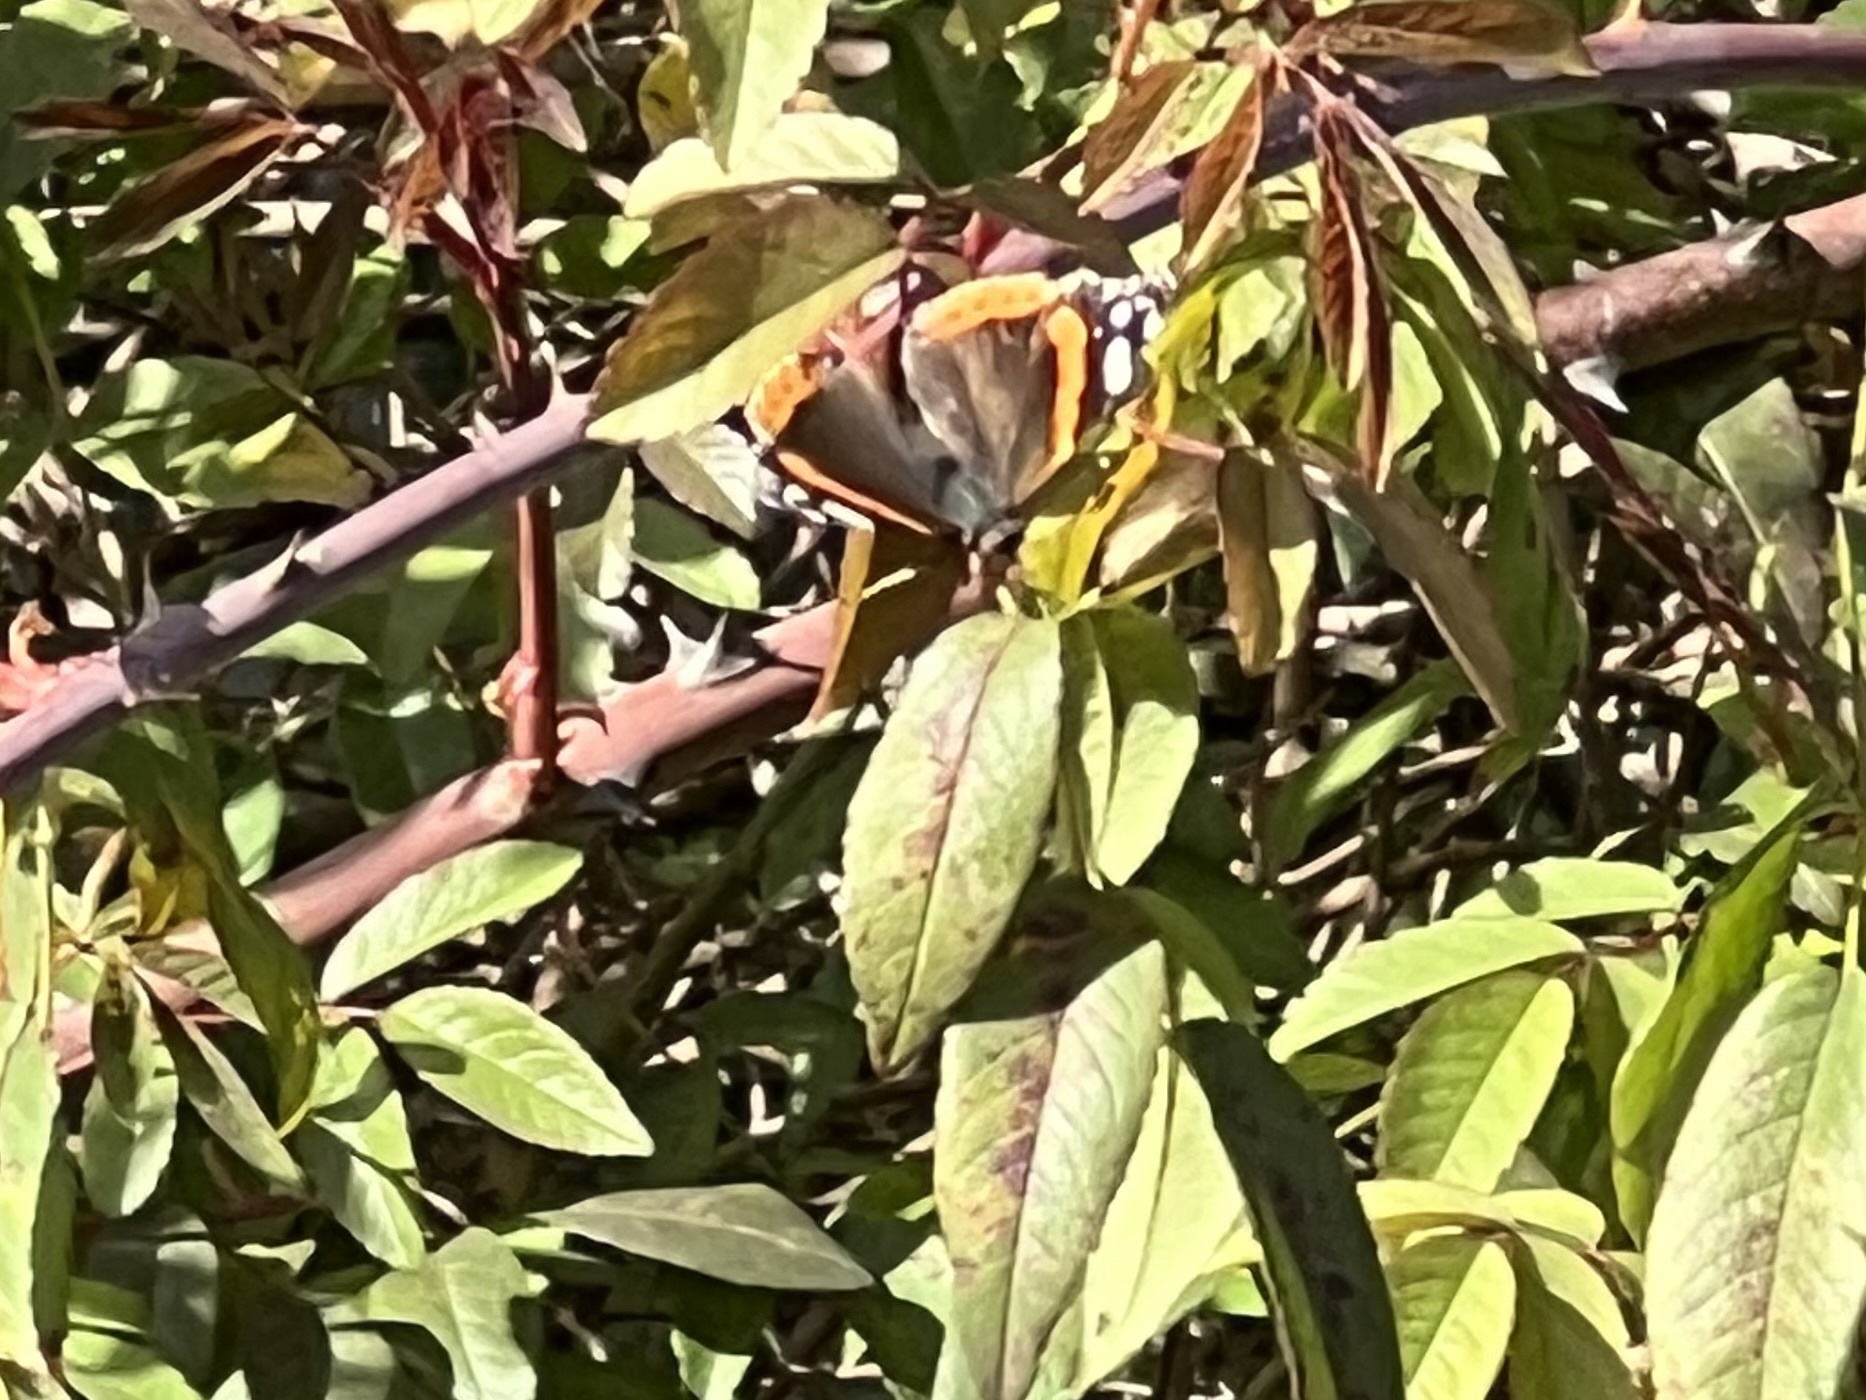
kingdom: Animalia
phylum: Arthropoda
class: Insecta
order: Lepidoptera
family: Nymphalidae
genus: Vanessa
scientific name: Vanessa atalanta
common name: Red admiral
